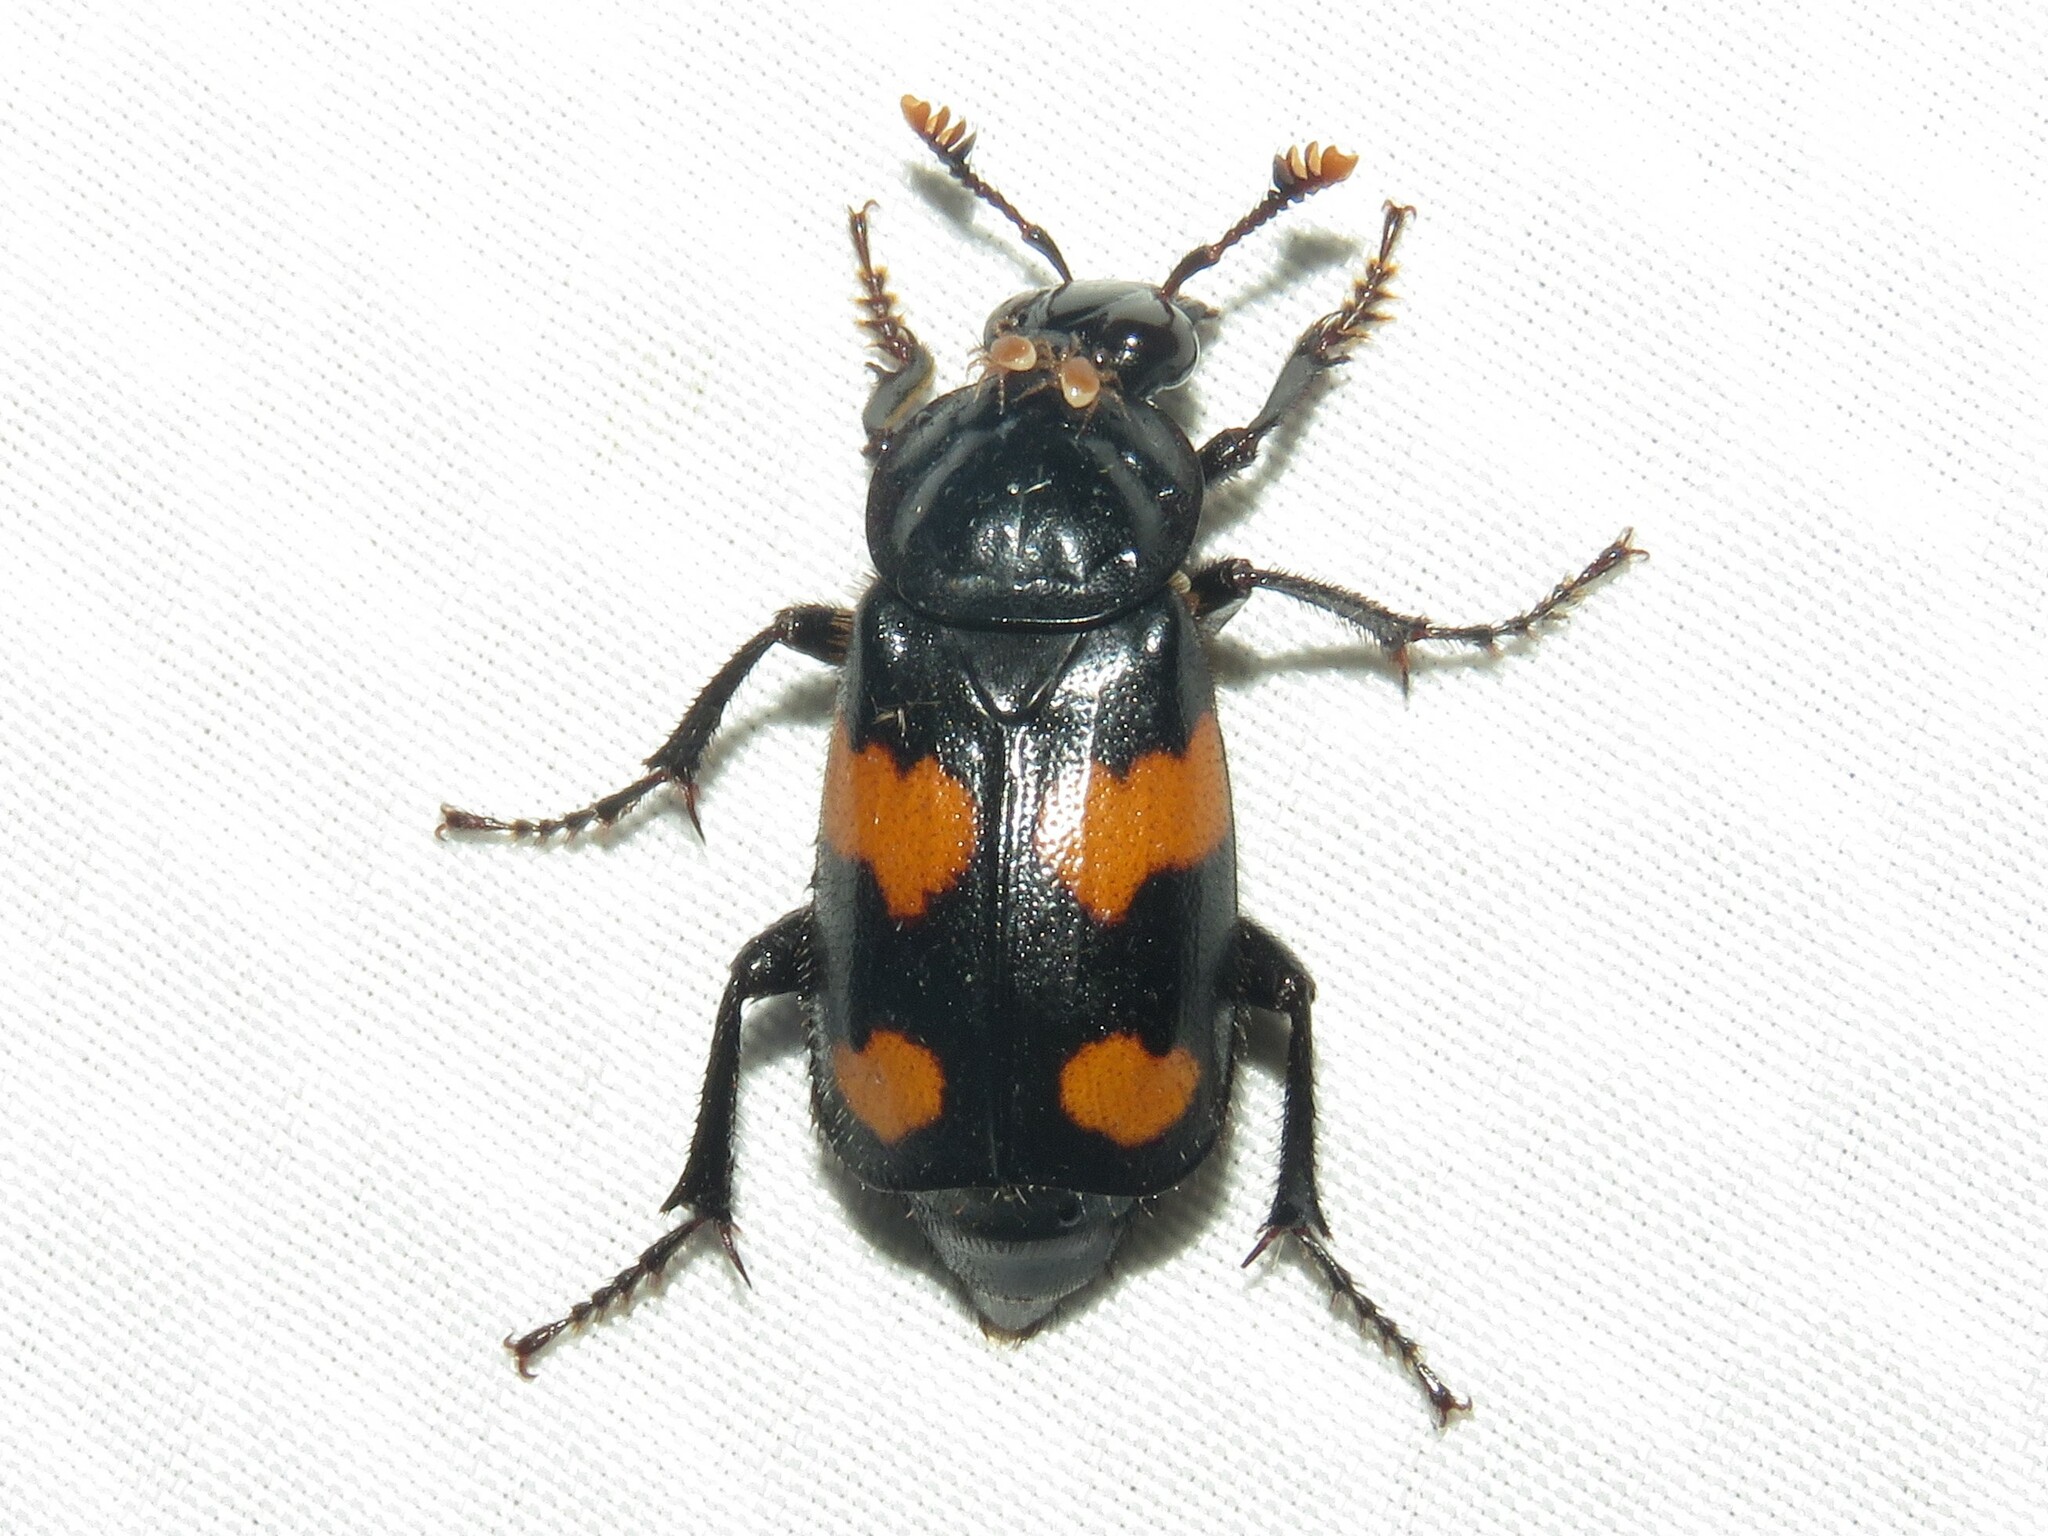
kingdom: Animalia
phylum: Arthropoda
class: Insecta
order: Coleoptera
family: Staphylinidae
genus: Nicrophorus
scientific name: Nicrophorus orbicollis
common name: Roundneck sexton beetle
